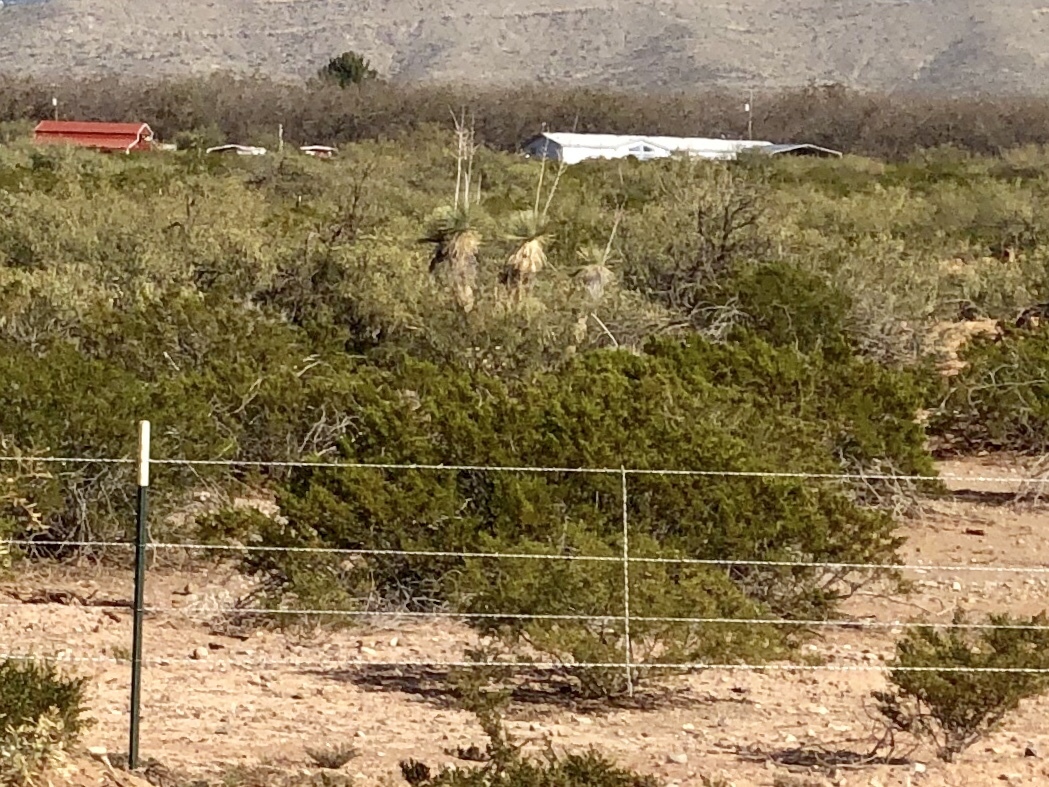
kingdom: Plantae
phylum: Tracheophyta
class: Magnoliopsida
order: Zygophyllales
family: Zygophyllaceae
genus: Larrea
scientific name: Larrea tridentata
